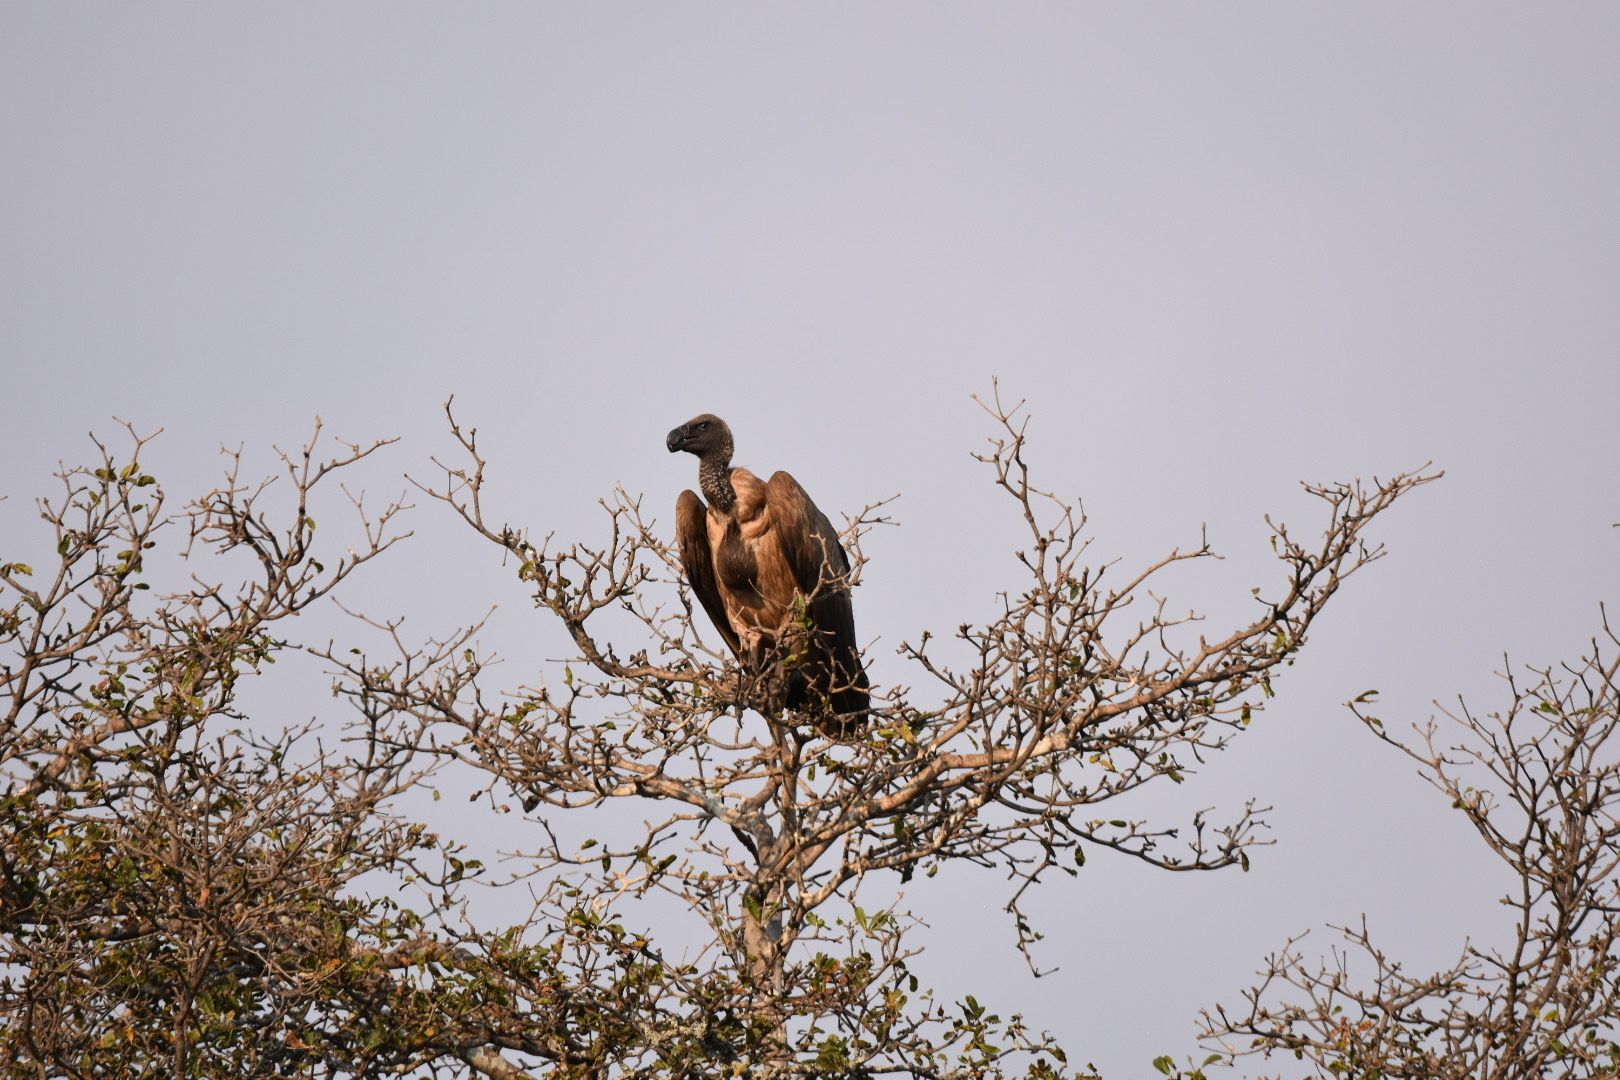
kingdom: Animalia
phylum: Chordata
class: Aves
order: Accipitriformes
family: Accipitridae
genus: Gyps
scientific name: Gyps africanus
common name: White-backed vulture
